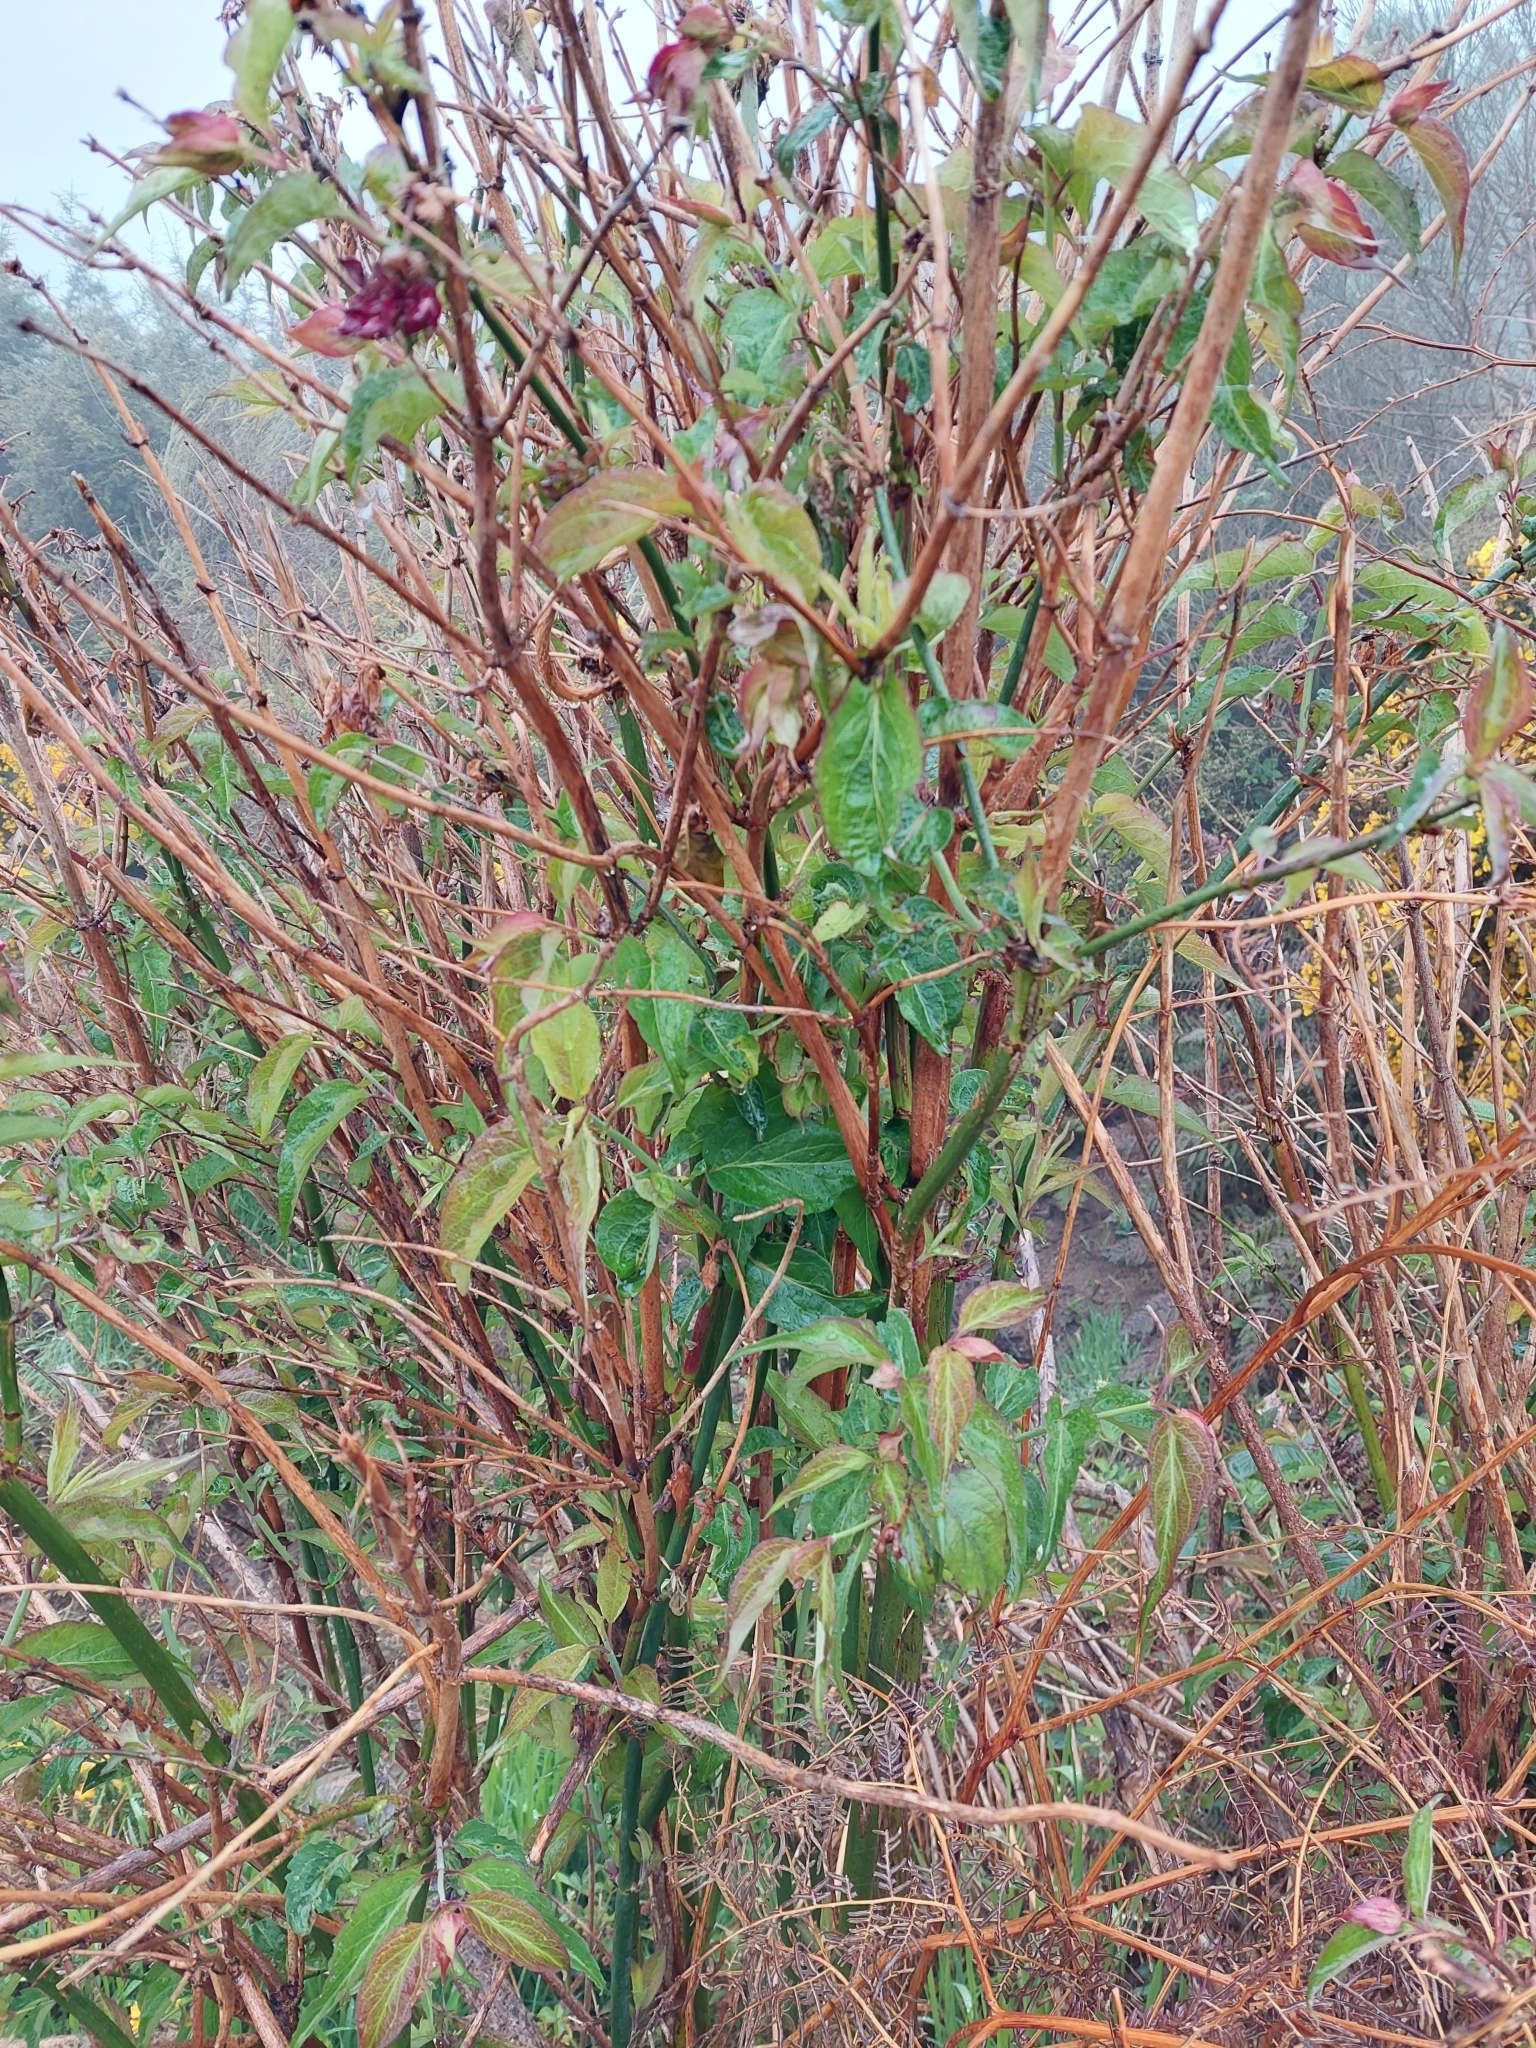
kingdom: Plantae
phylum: Tracheophyta
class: Magnoliopsida
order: Dipsacales
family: Caprifoliaceae
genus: Leycesteria
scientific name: Leycesteria formosa
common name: Himalayan honeysuckle
